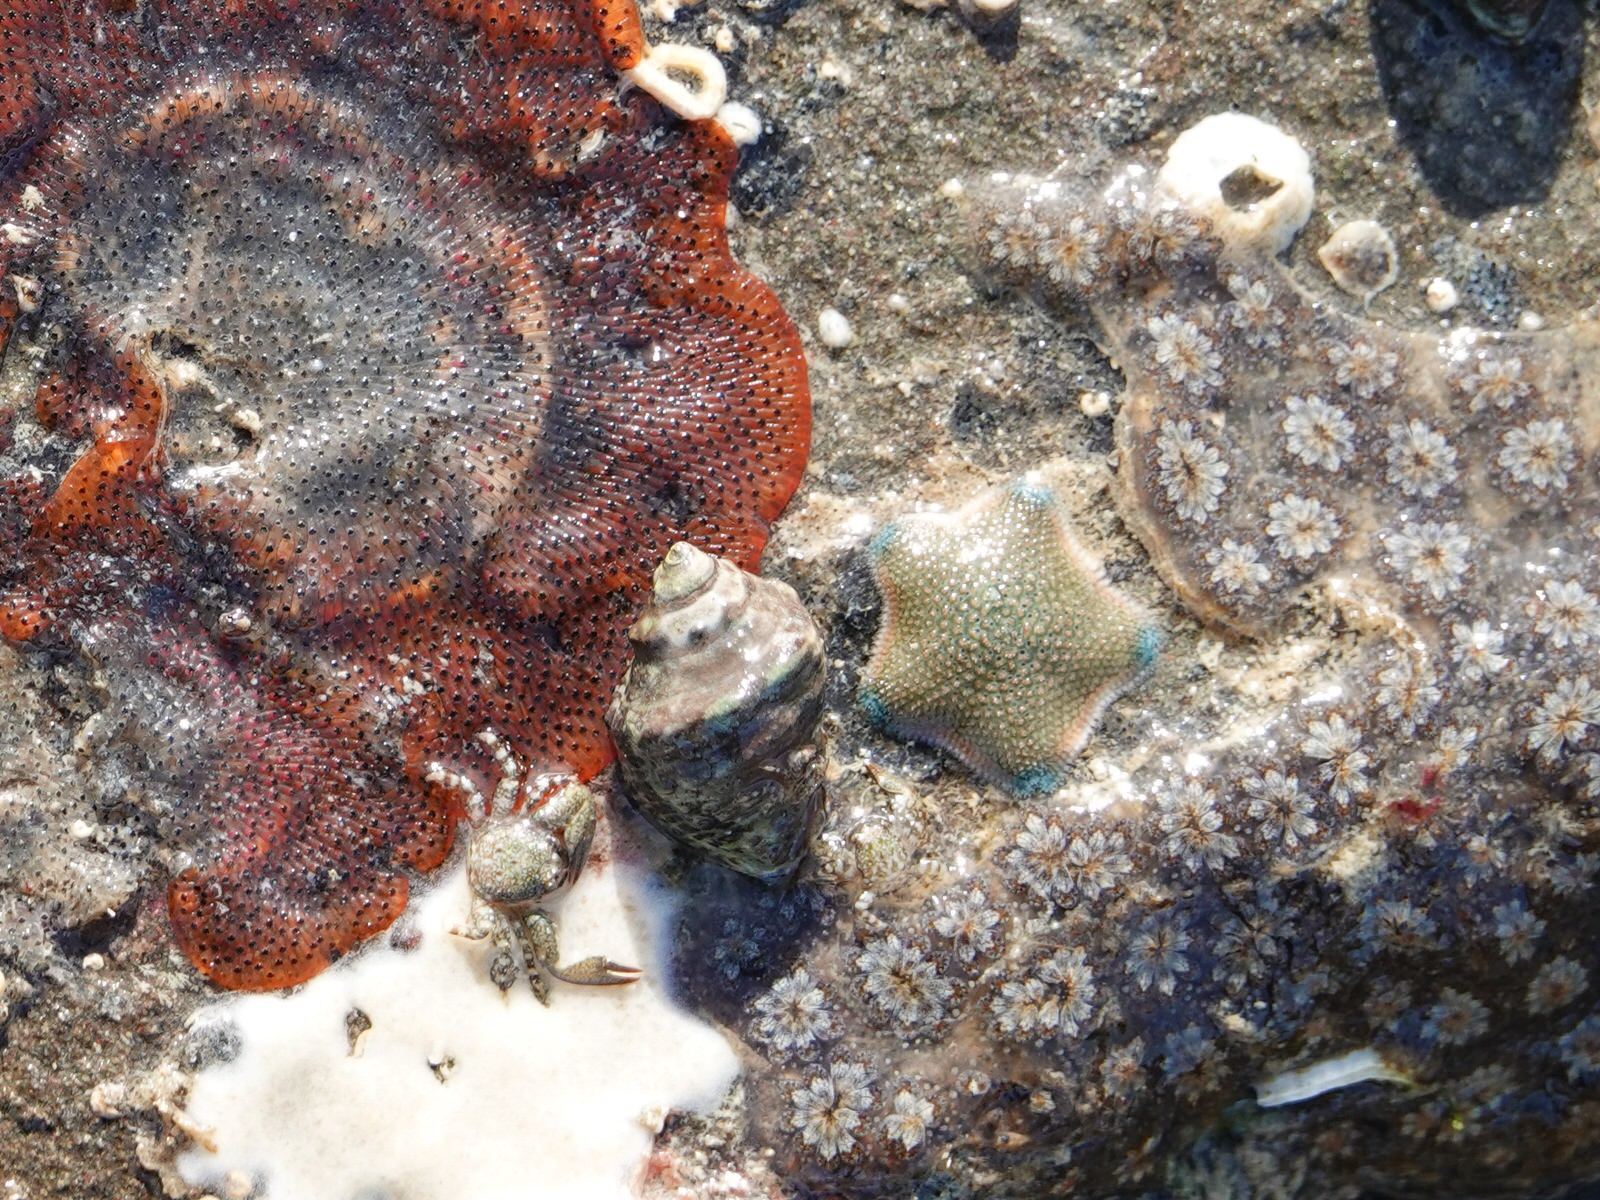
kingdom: Animalia
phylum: Echinodermata
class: Asteroidea
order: Valvatida
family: Asterinidae
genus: Patiriella
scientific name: Patiriella regularis
